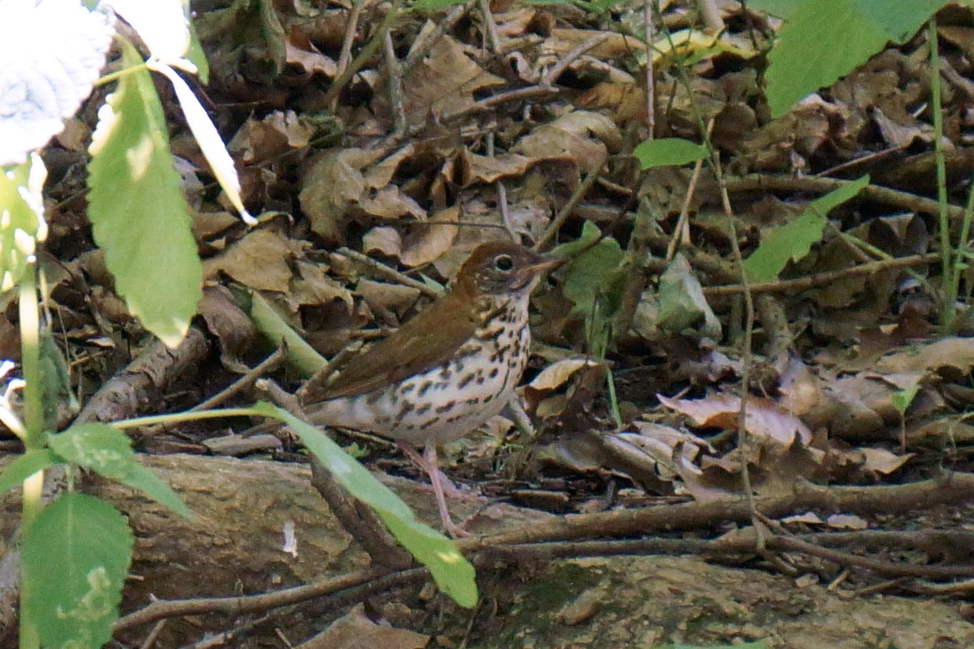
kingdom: Animalia
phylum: Chordata
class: Aves
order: Passeriformes
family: Turdidae
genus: Hylocichla
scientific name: Hylocichla mustelina
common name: Wood thrush
